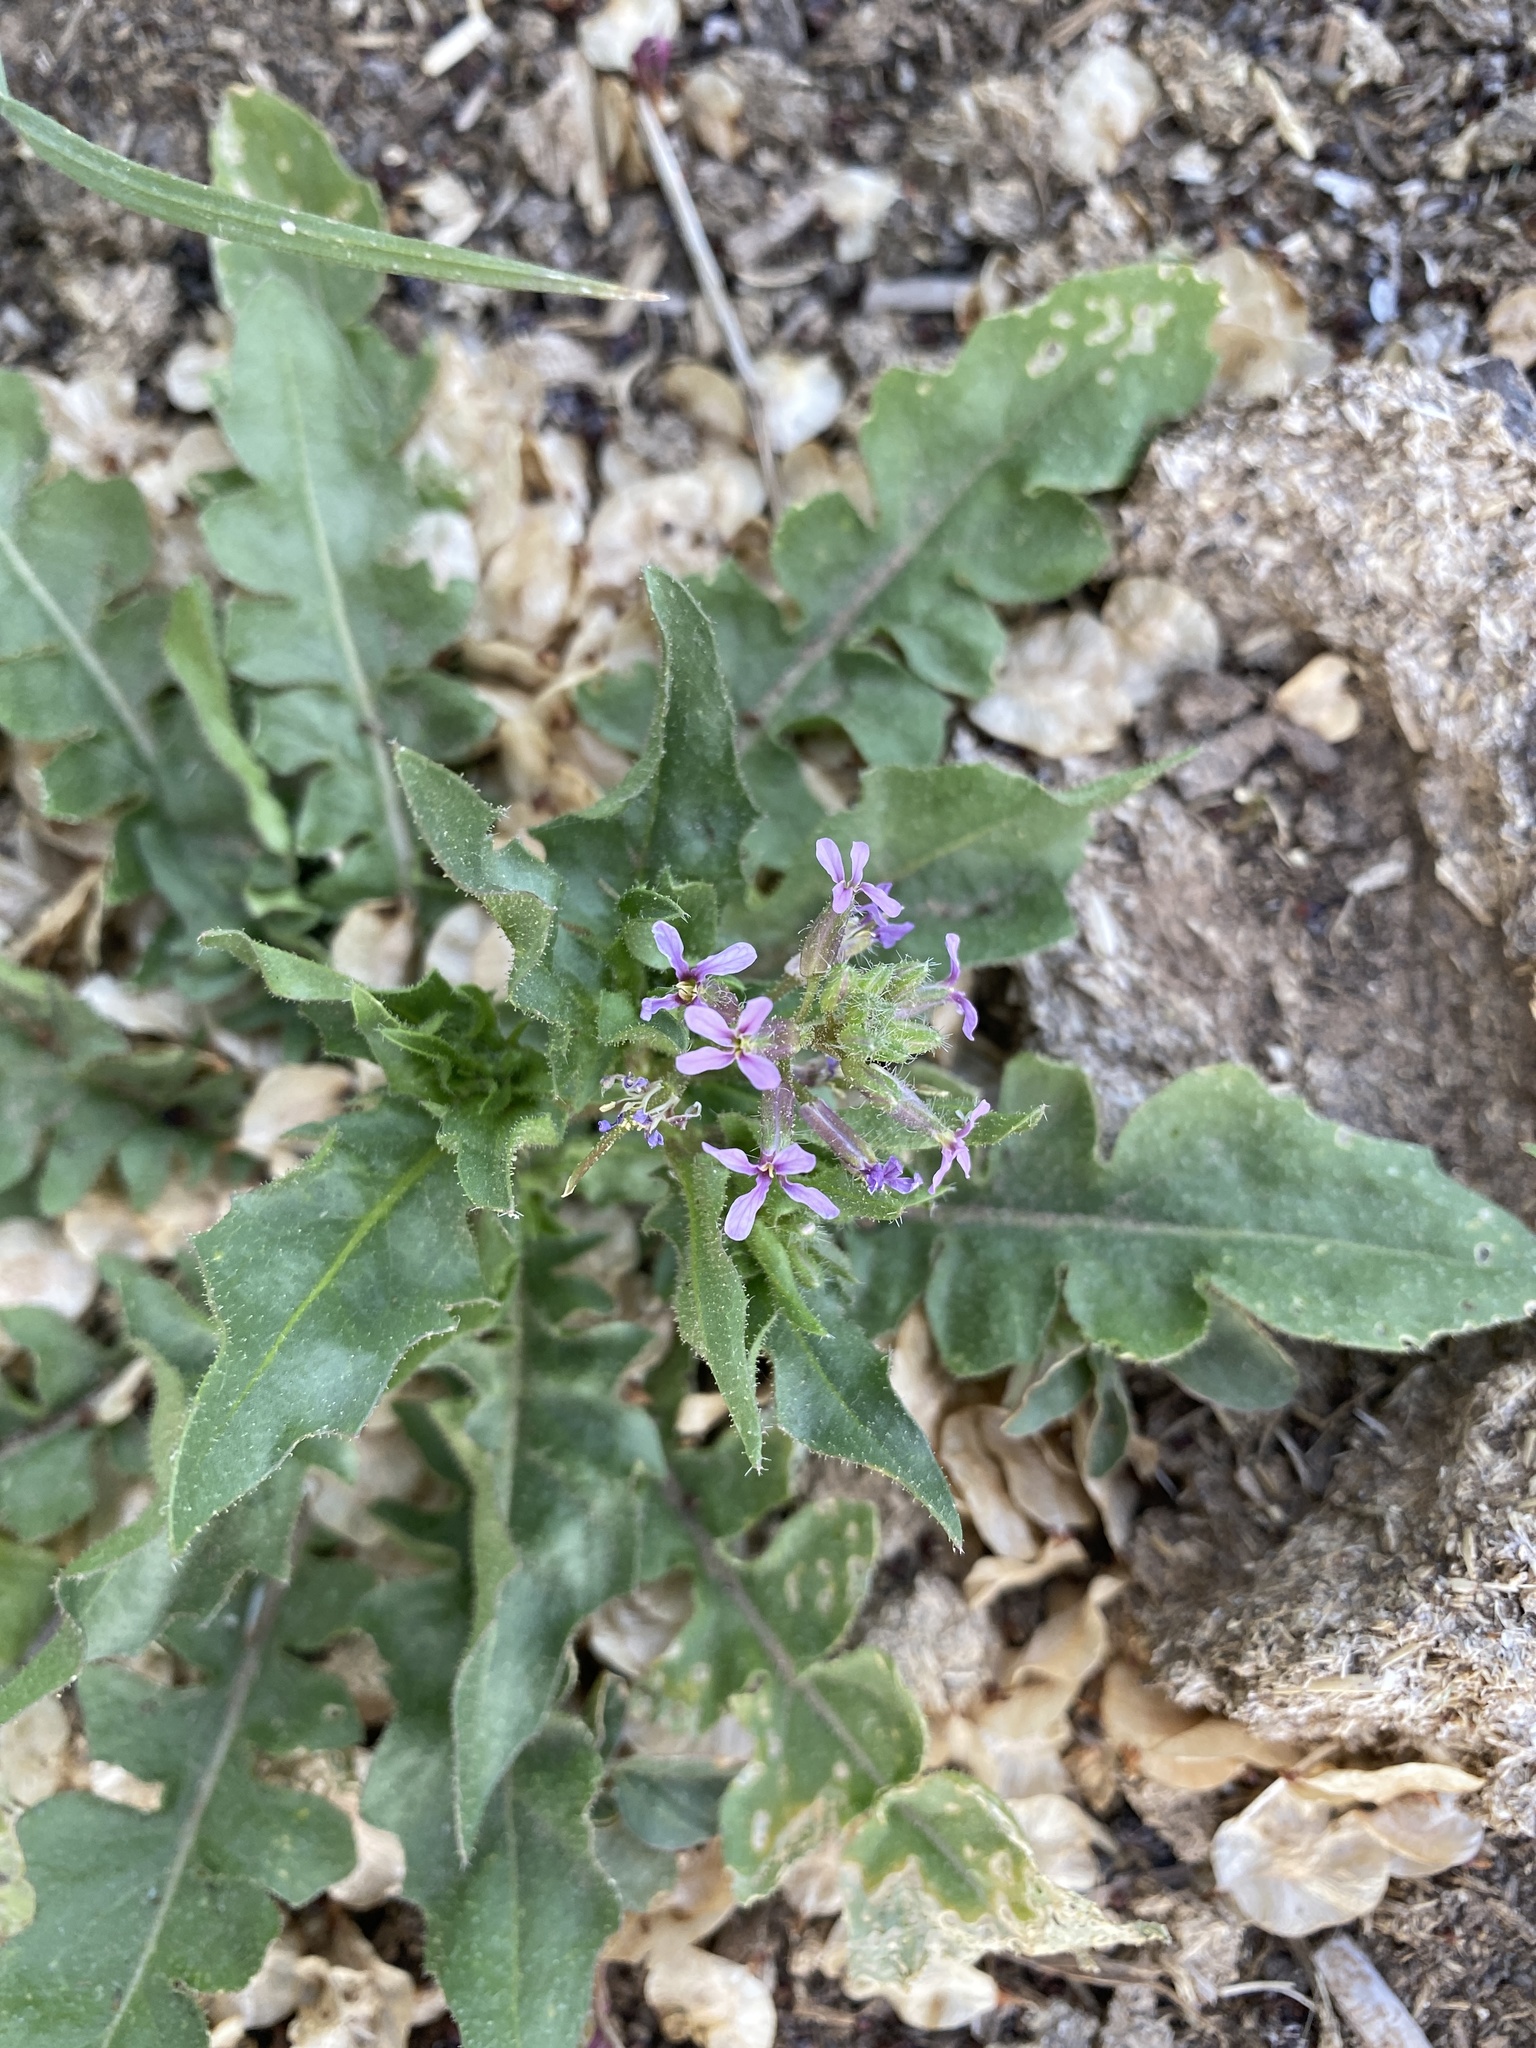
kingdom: Plantae
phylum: Tracheophyta
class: Magnoliopsida
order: Brassicales
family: Brassicaceae
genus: Chorispora
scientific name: Chorispora tenella
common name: Crossflower
